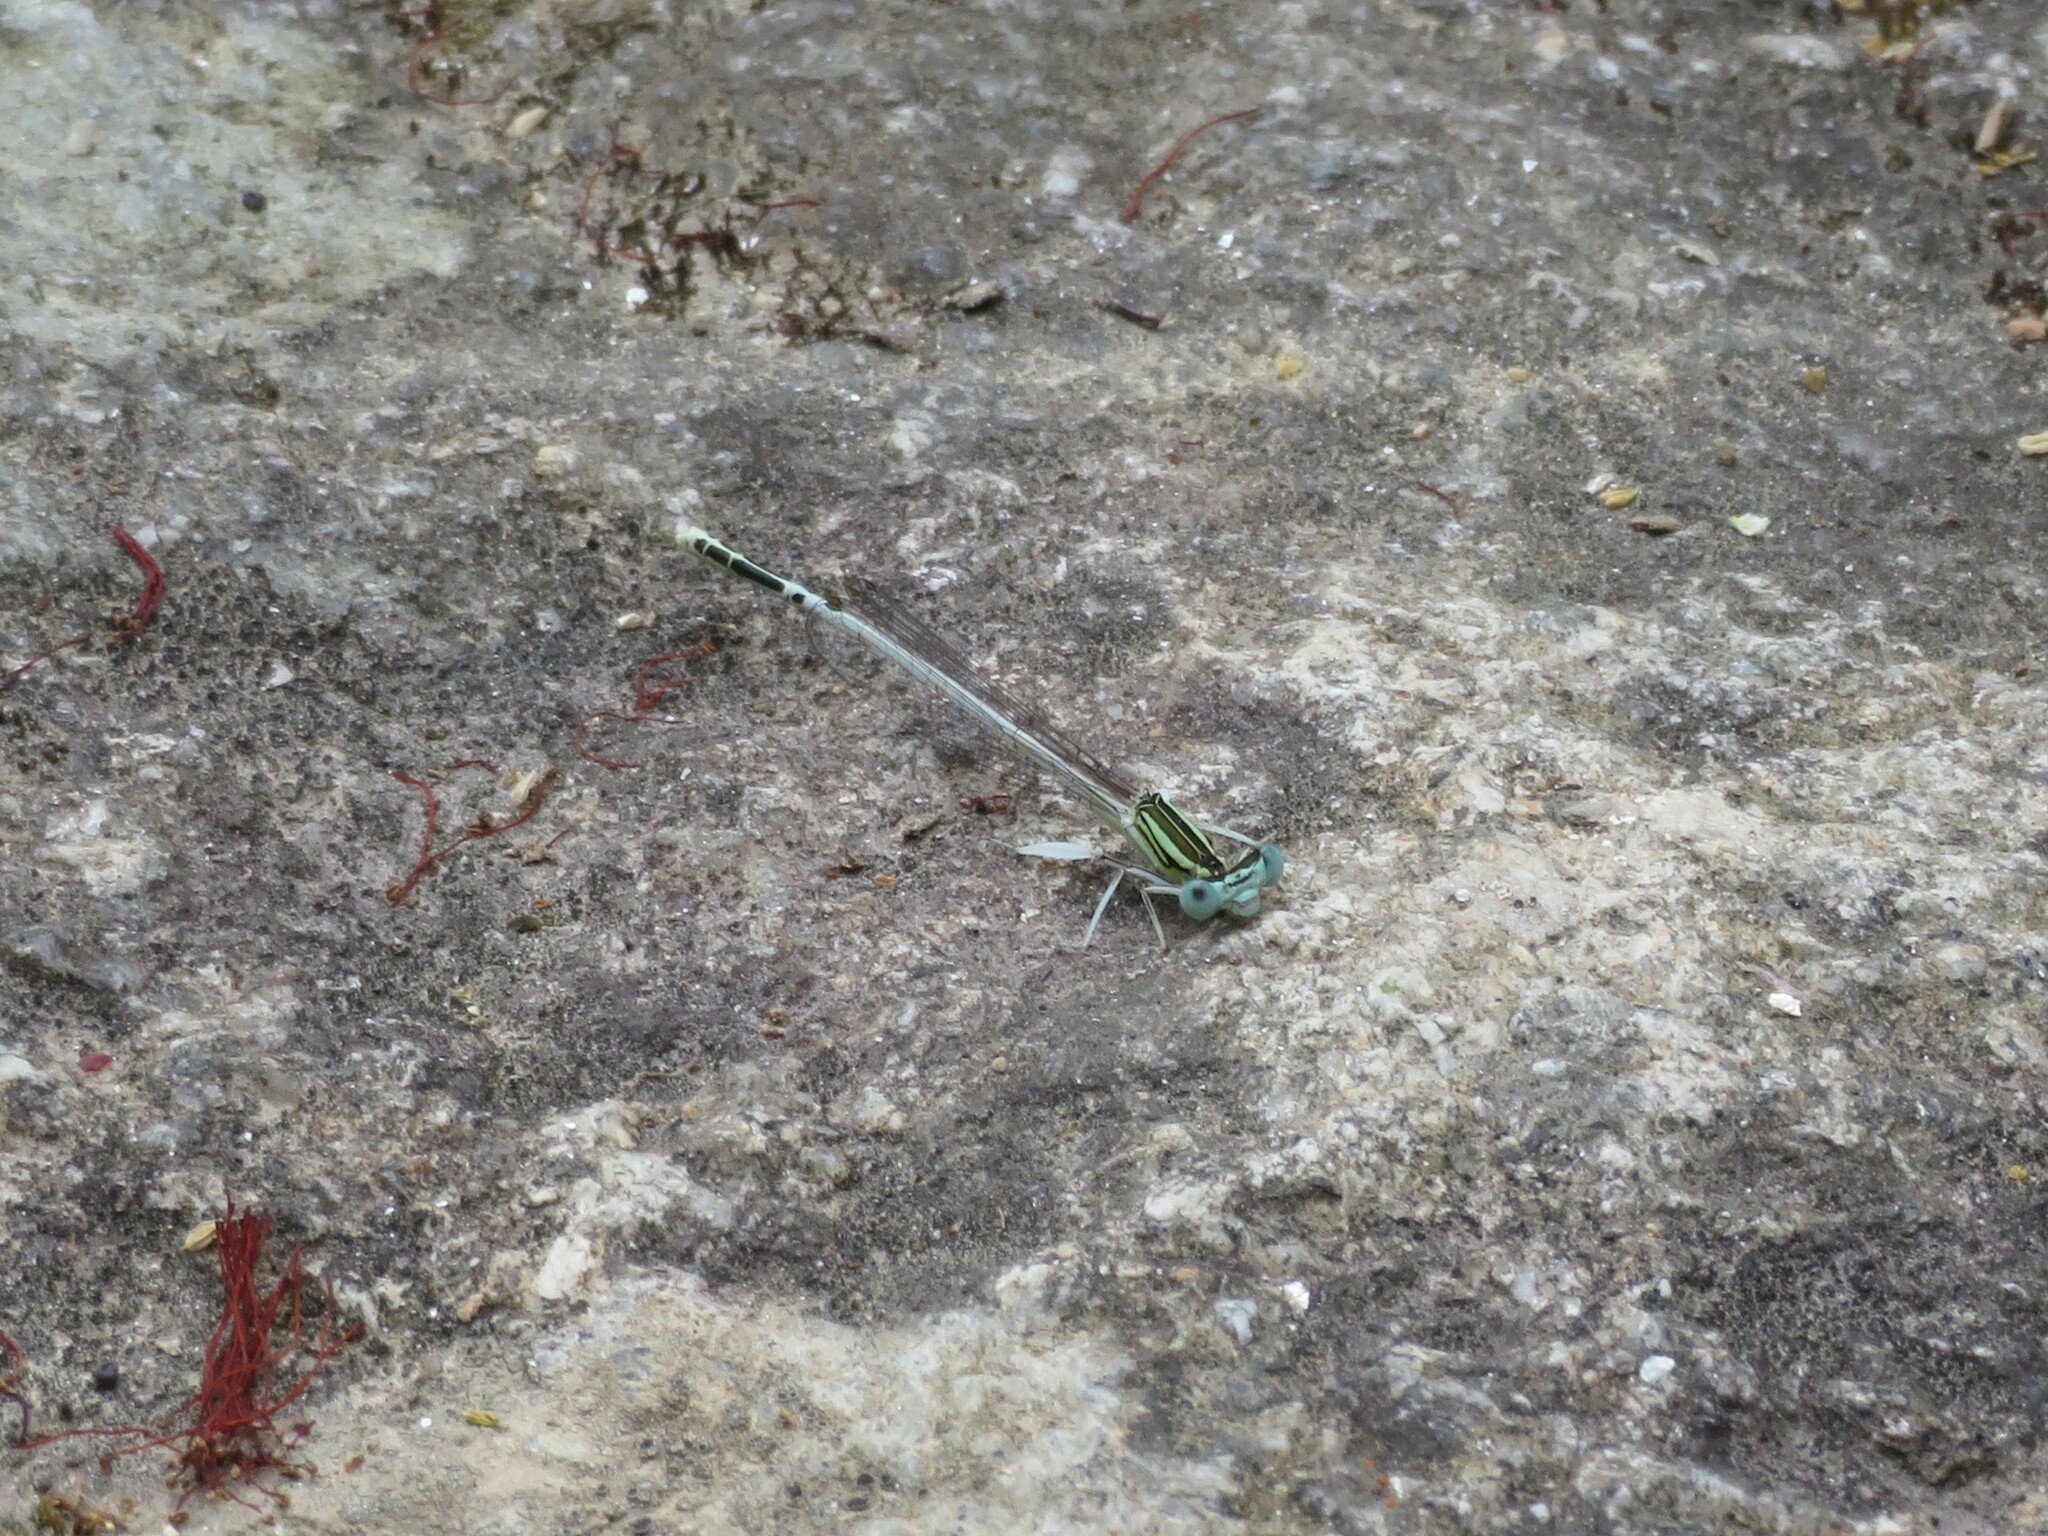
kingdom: Animalia
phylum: Arthropoda
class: Insecta
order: Odonata
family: Platycnemididae
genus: Platycnemis
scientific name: Platycnemis latipes
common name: White featherleg
